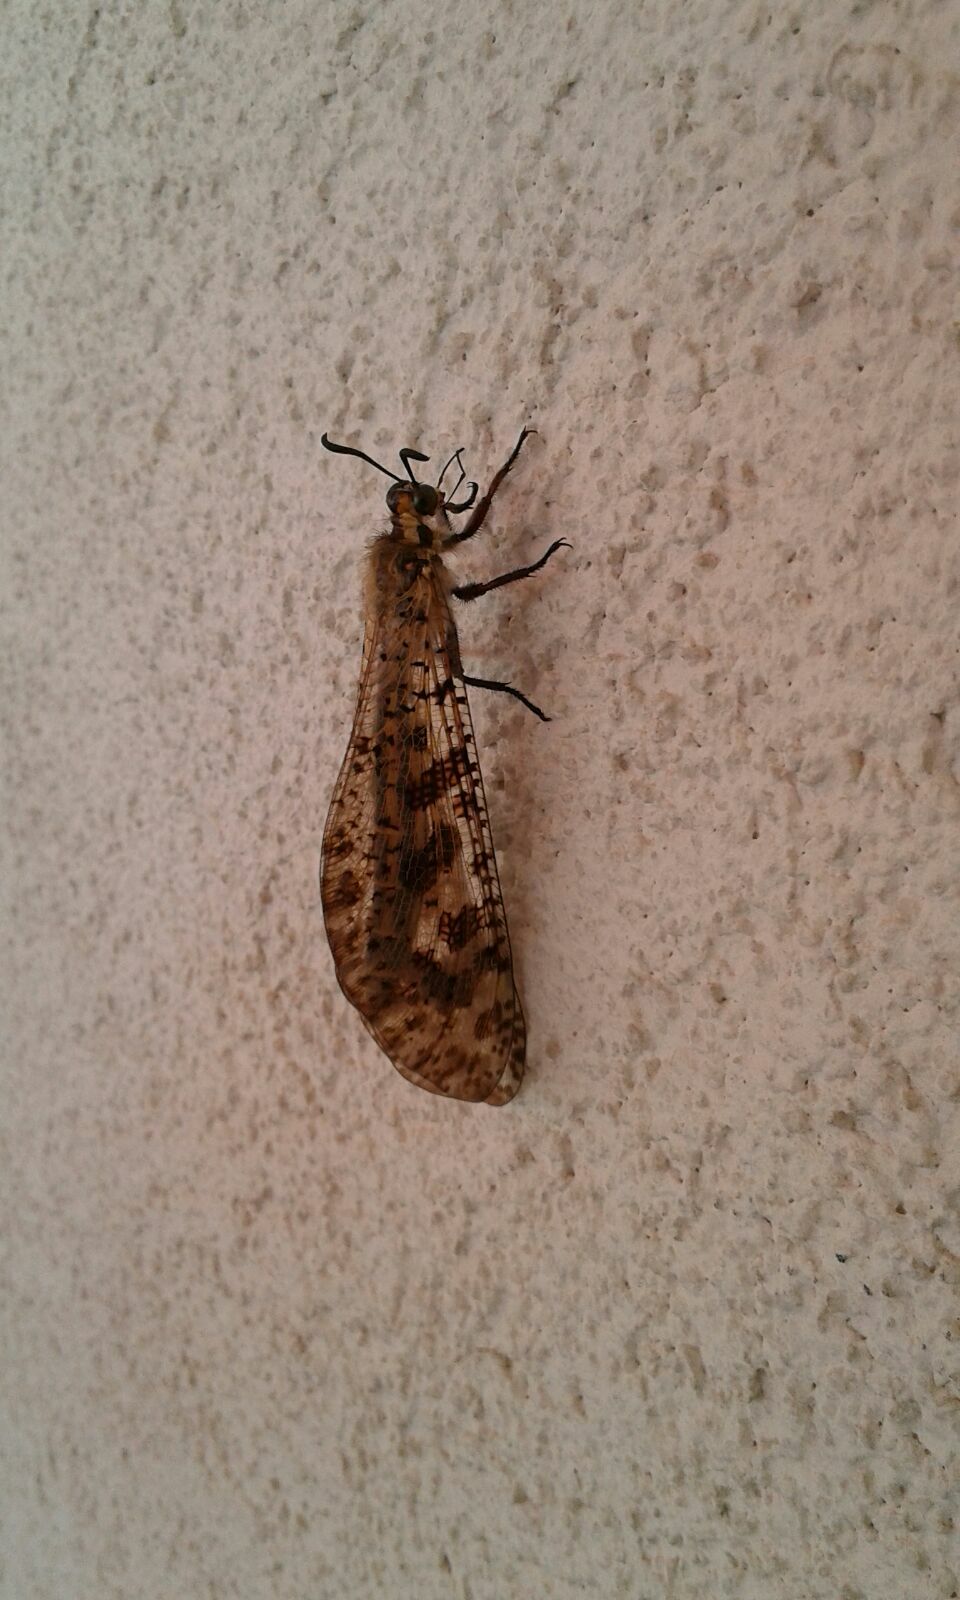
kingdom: Animalia
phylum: Arthropoda
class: Insecta
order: Neuroptera
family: Myrmeleontidae
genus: Palpares
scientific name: Palpares libelluloides
